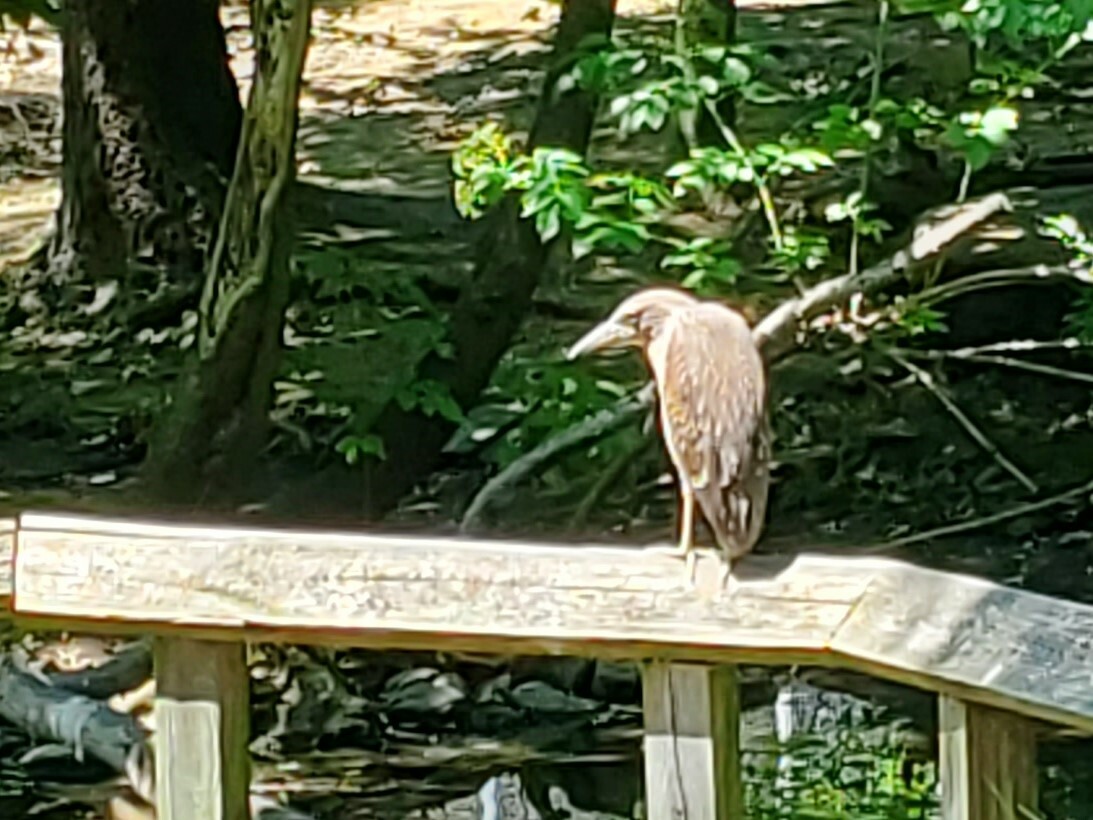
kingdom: Animalia
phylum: Chordata
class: Aves
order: Pelecaniformes
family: Ardeidae
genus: Butorides
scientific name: Butorides virescens
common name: Green heron
